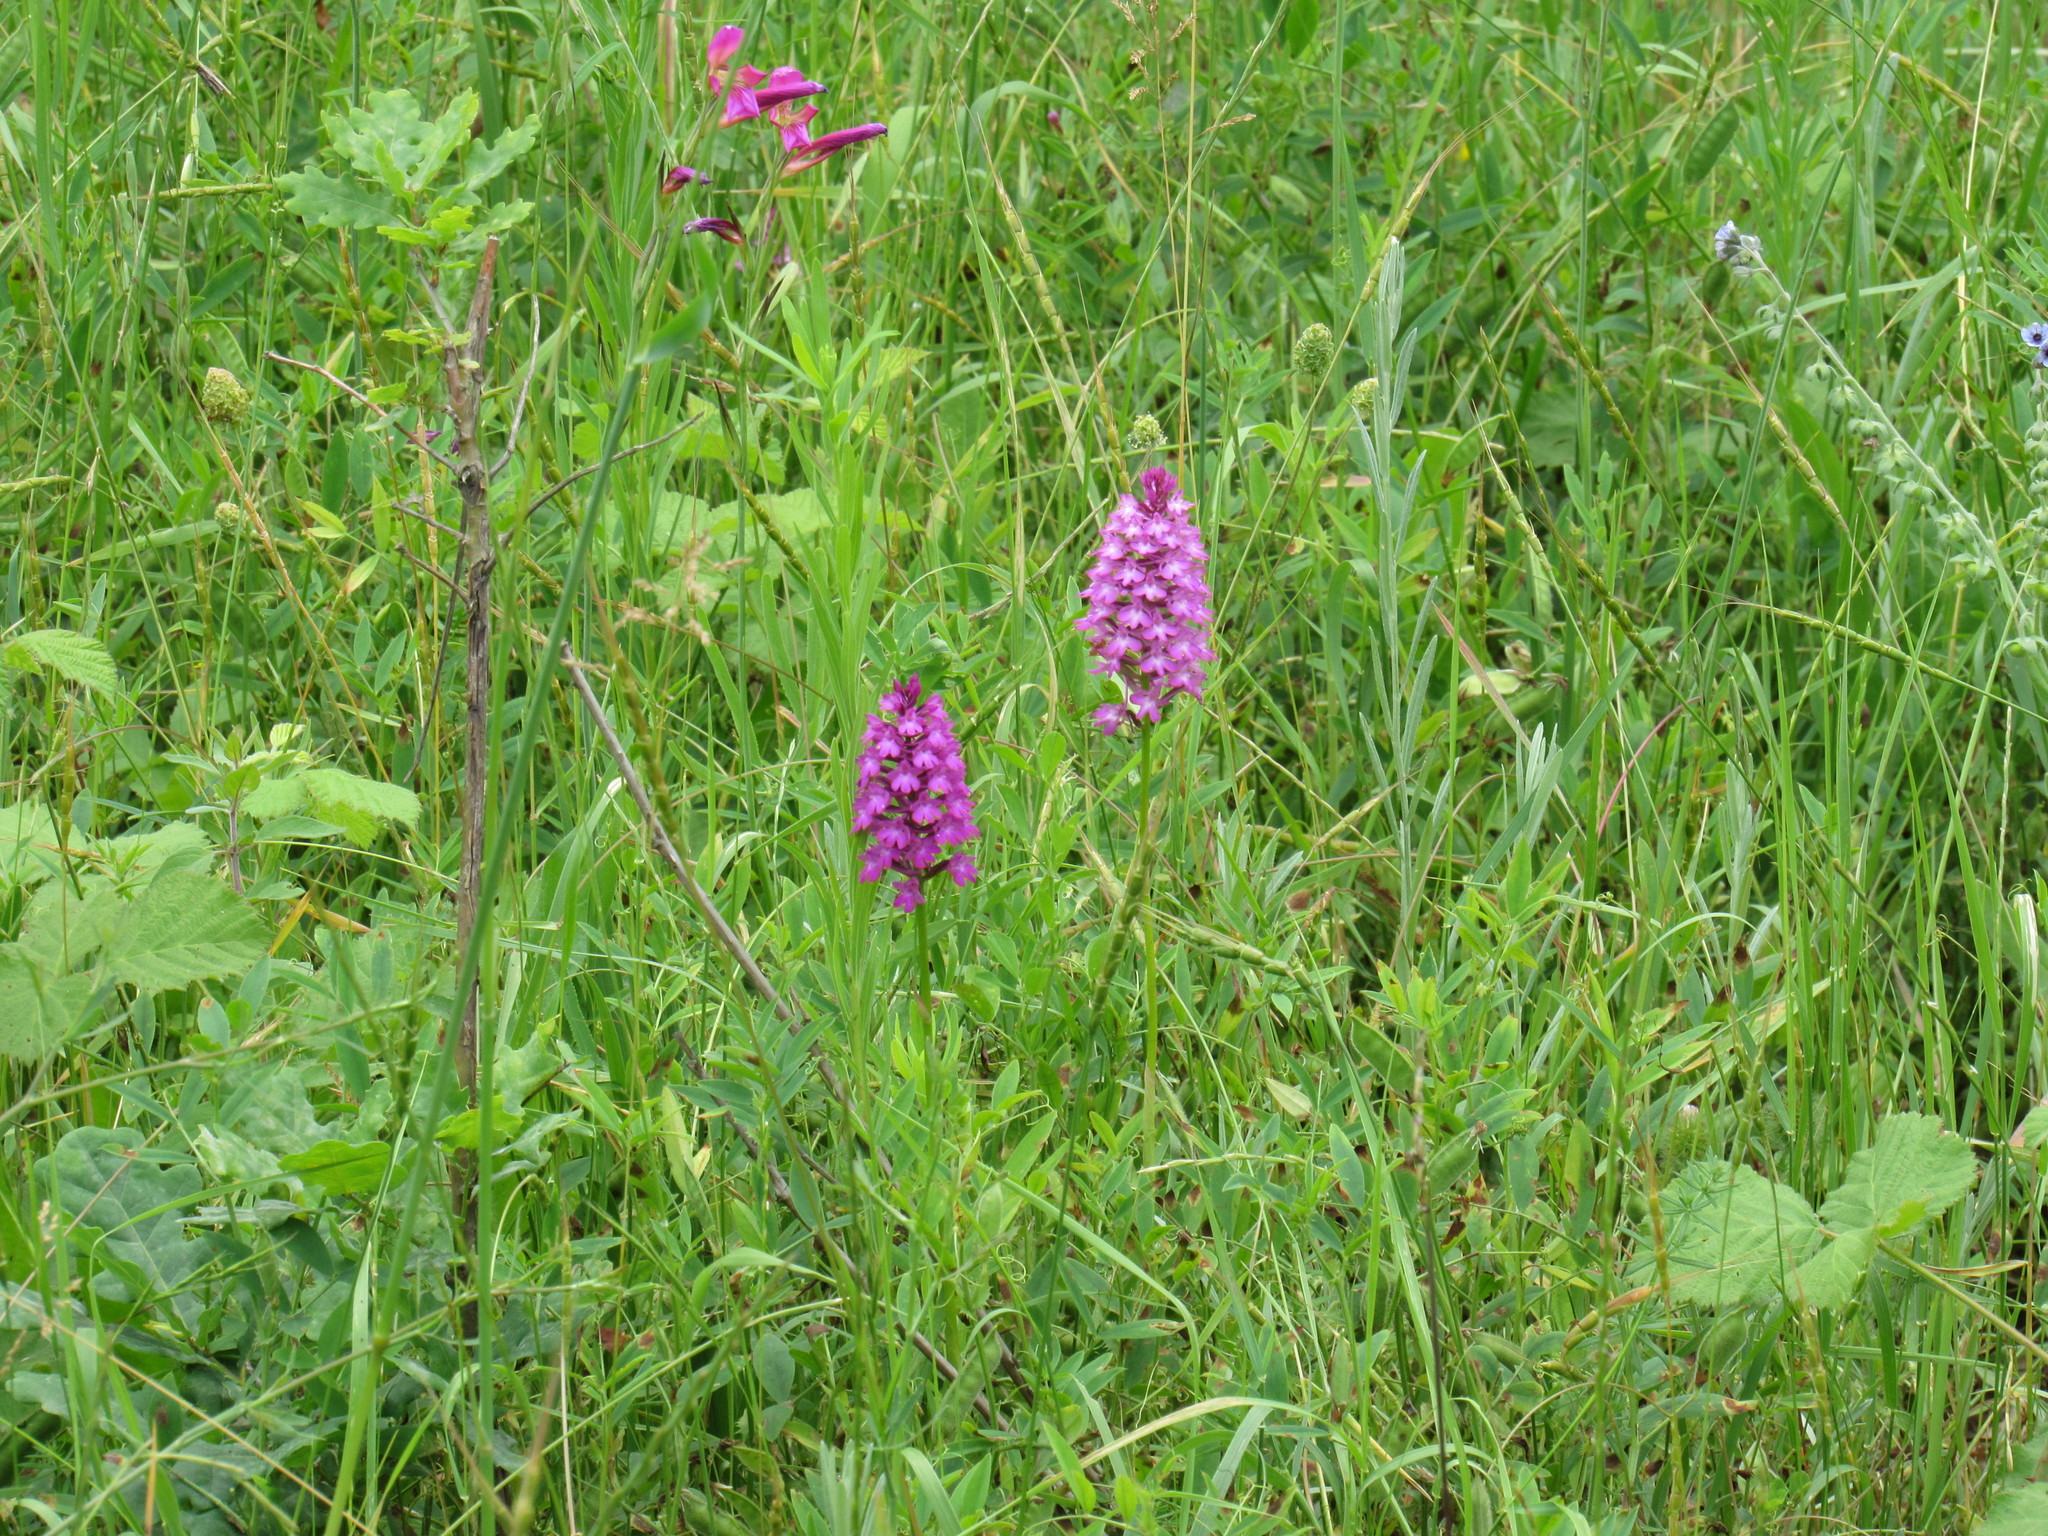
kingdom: Plantae
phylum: Tracheophyta
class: Liliopsida
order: Asparagales
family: Orchidaceae
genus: Anacamptis
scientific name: Anacamptis pyramidalis
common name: Pyramidal orchid
